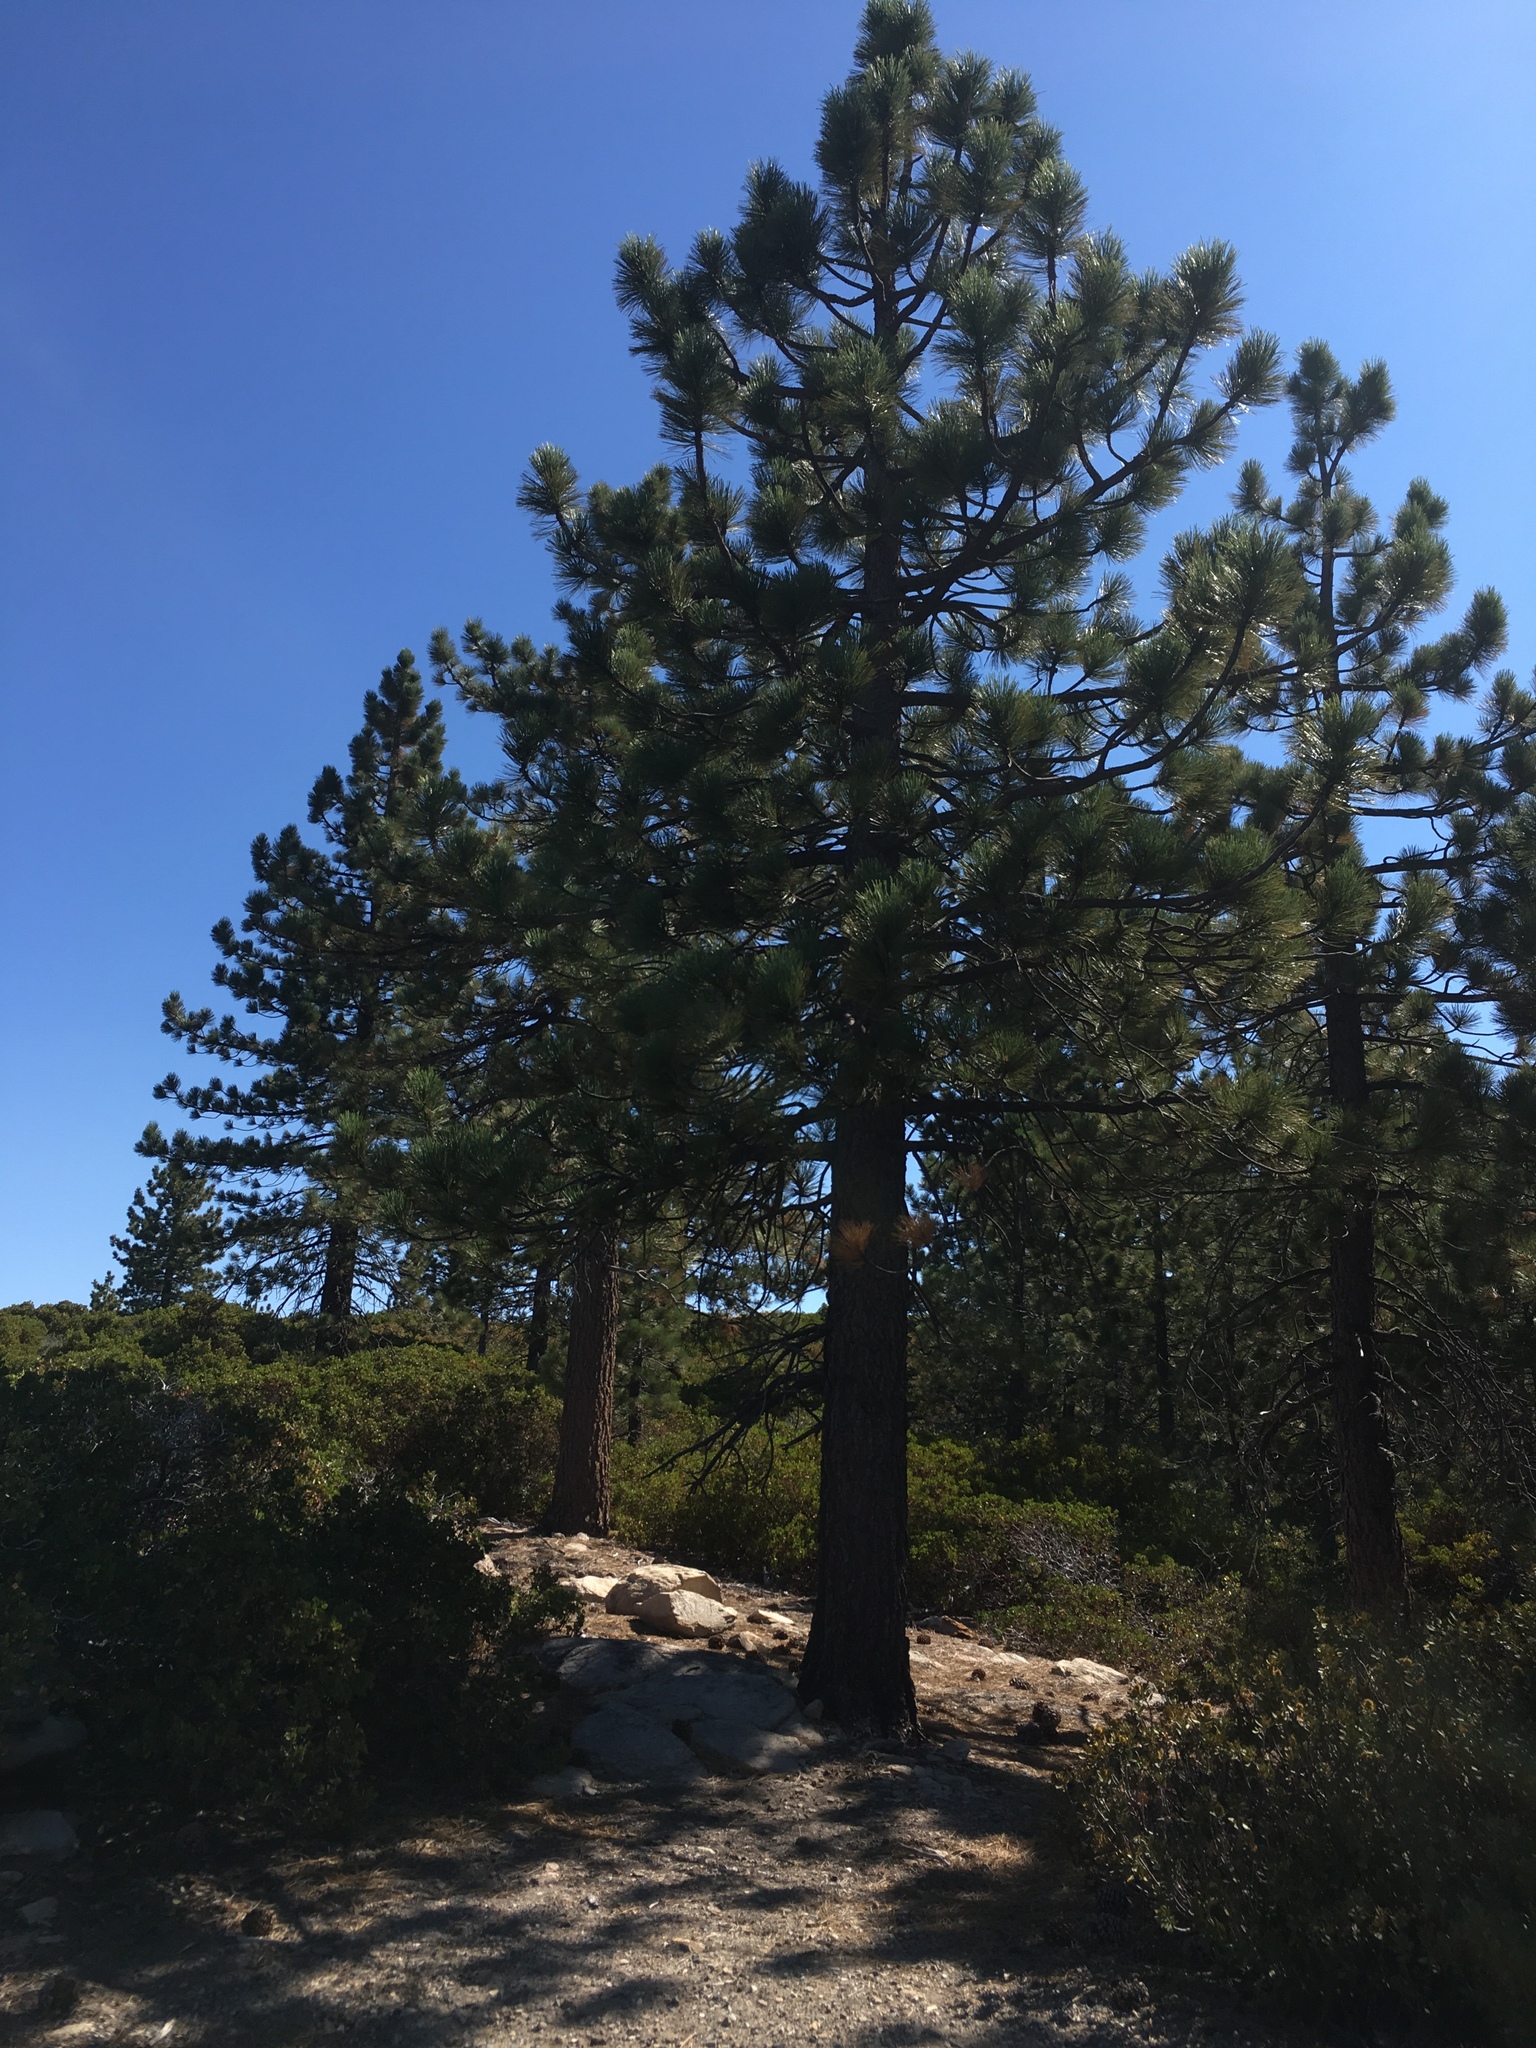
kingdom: Plantae
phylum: Tracheophyta
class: Pinopsida
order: Pinales
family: Pinaceae
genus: Pinus
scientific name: Pinus jeffreyi
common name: Jeffrey pine
